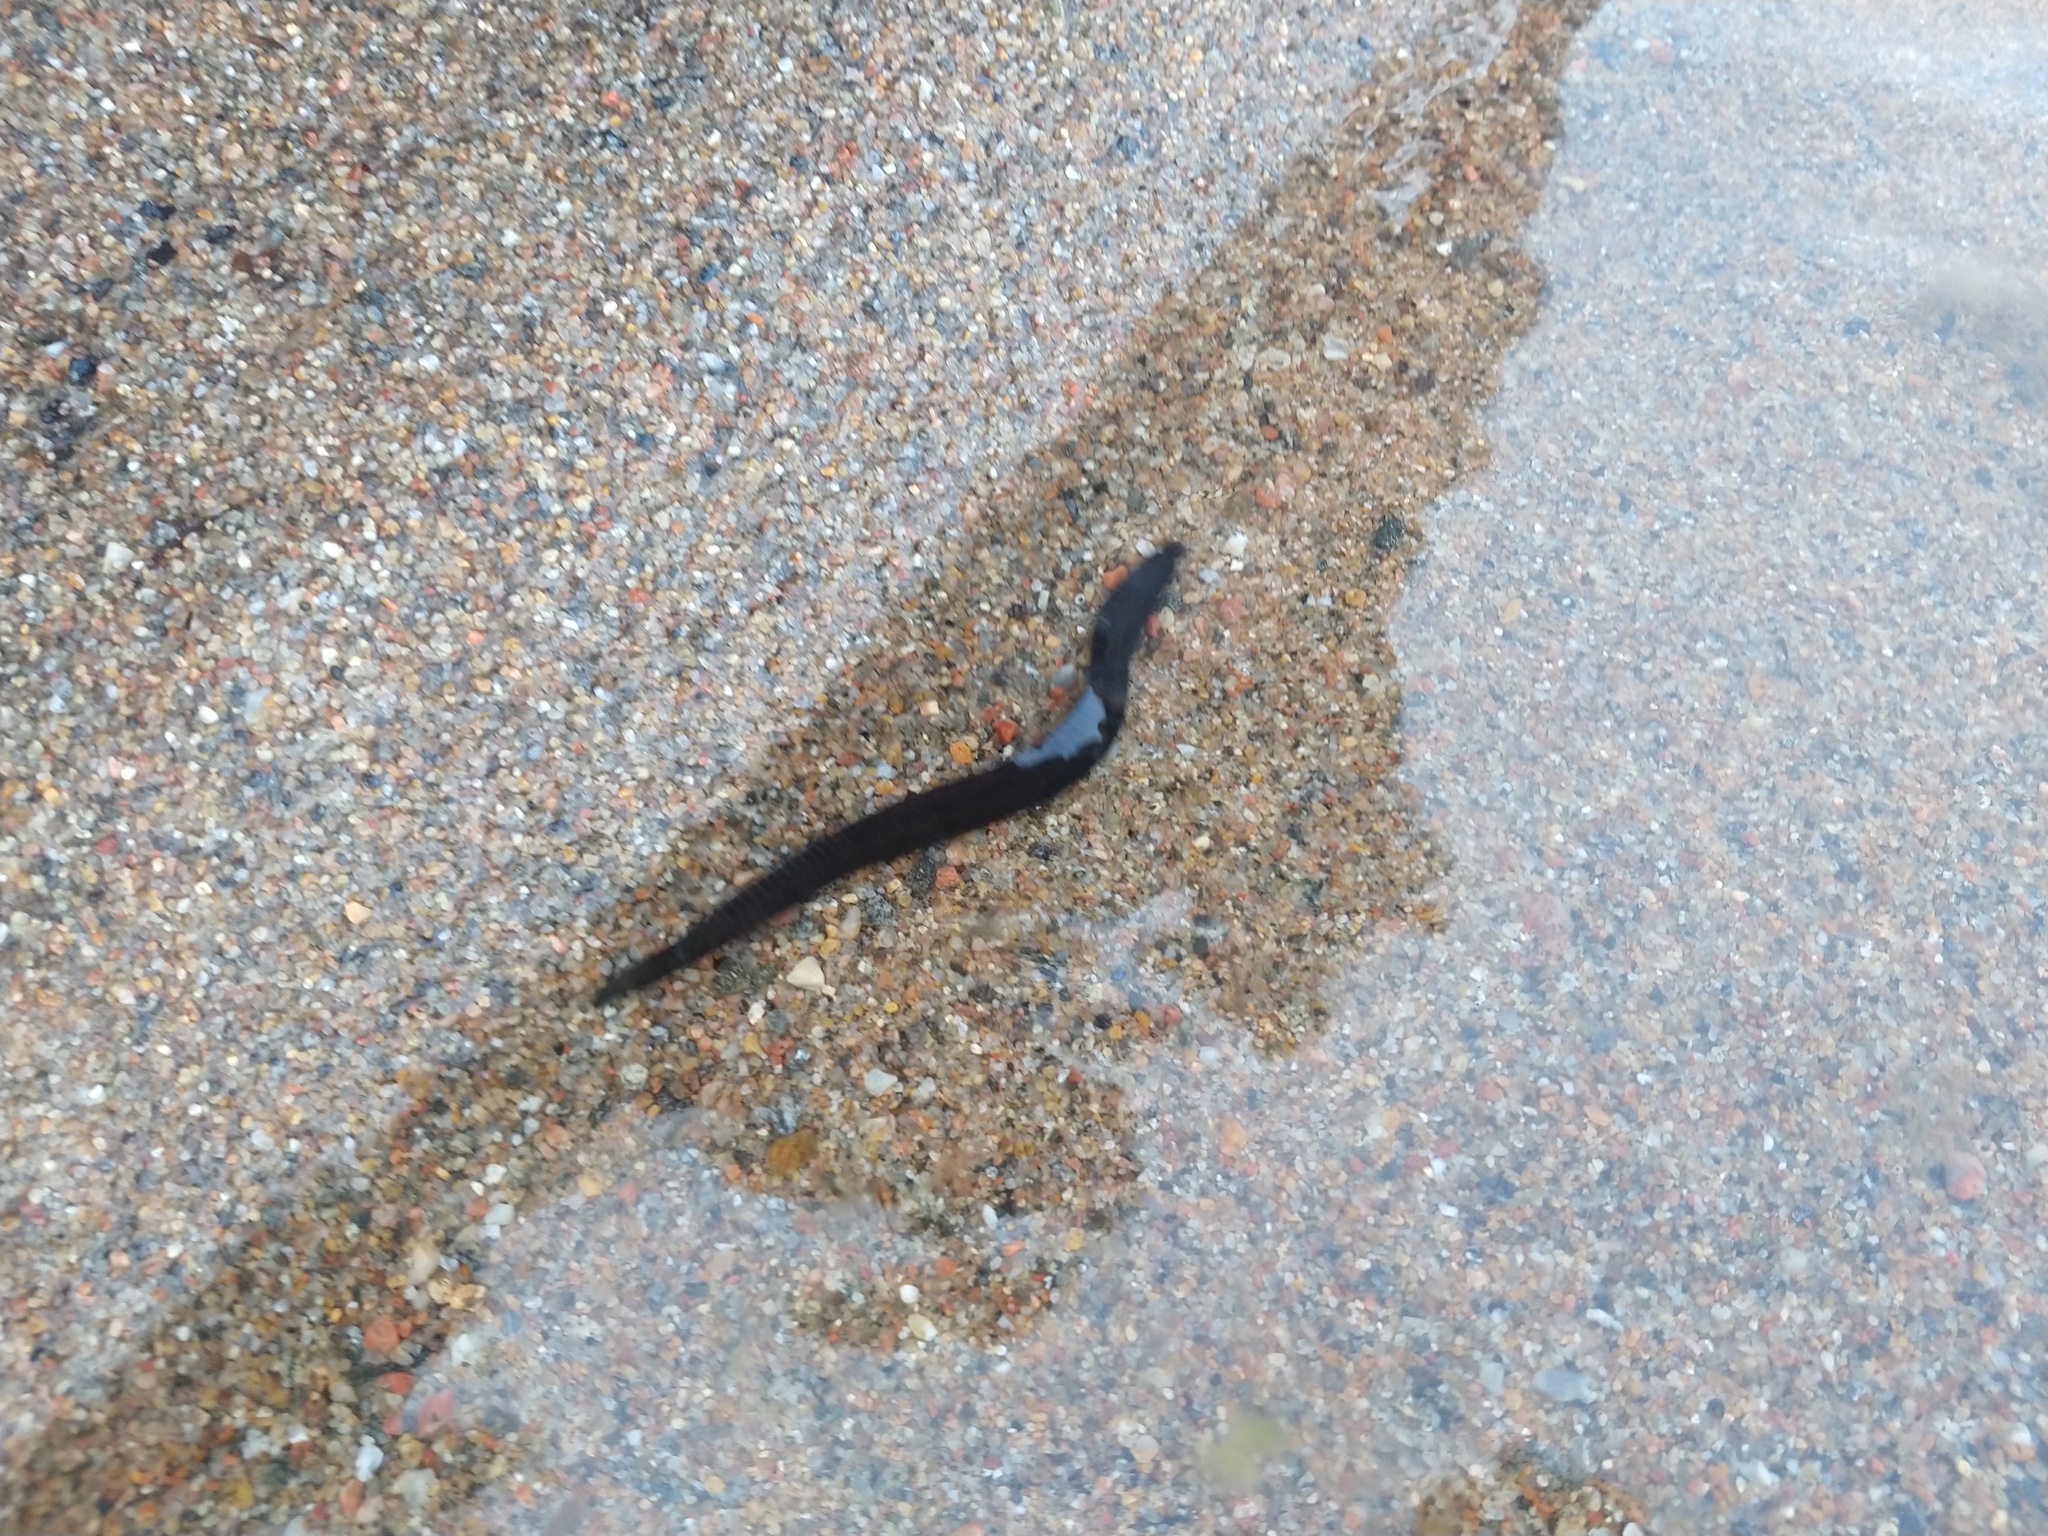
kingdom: Animalia
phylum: Annelida
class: Clitellata
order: Arhynchobdellida
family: Haemopidae
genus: Haemopis
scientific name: Haemopis sanguisuga
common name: Horse leech
